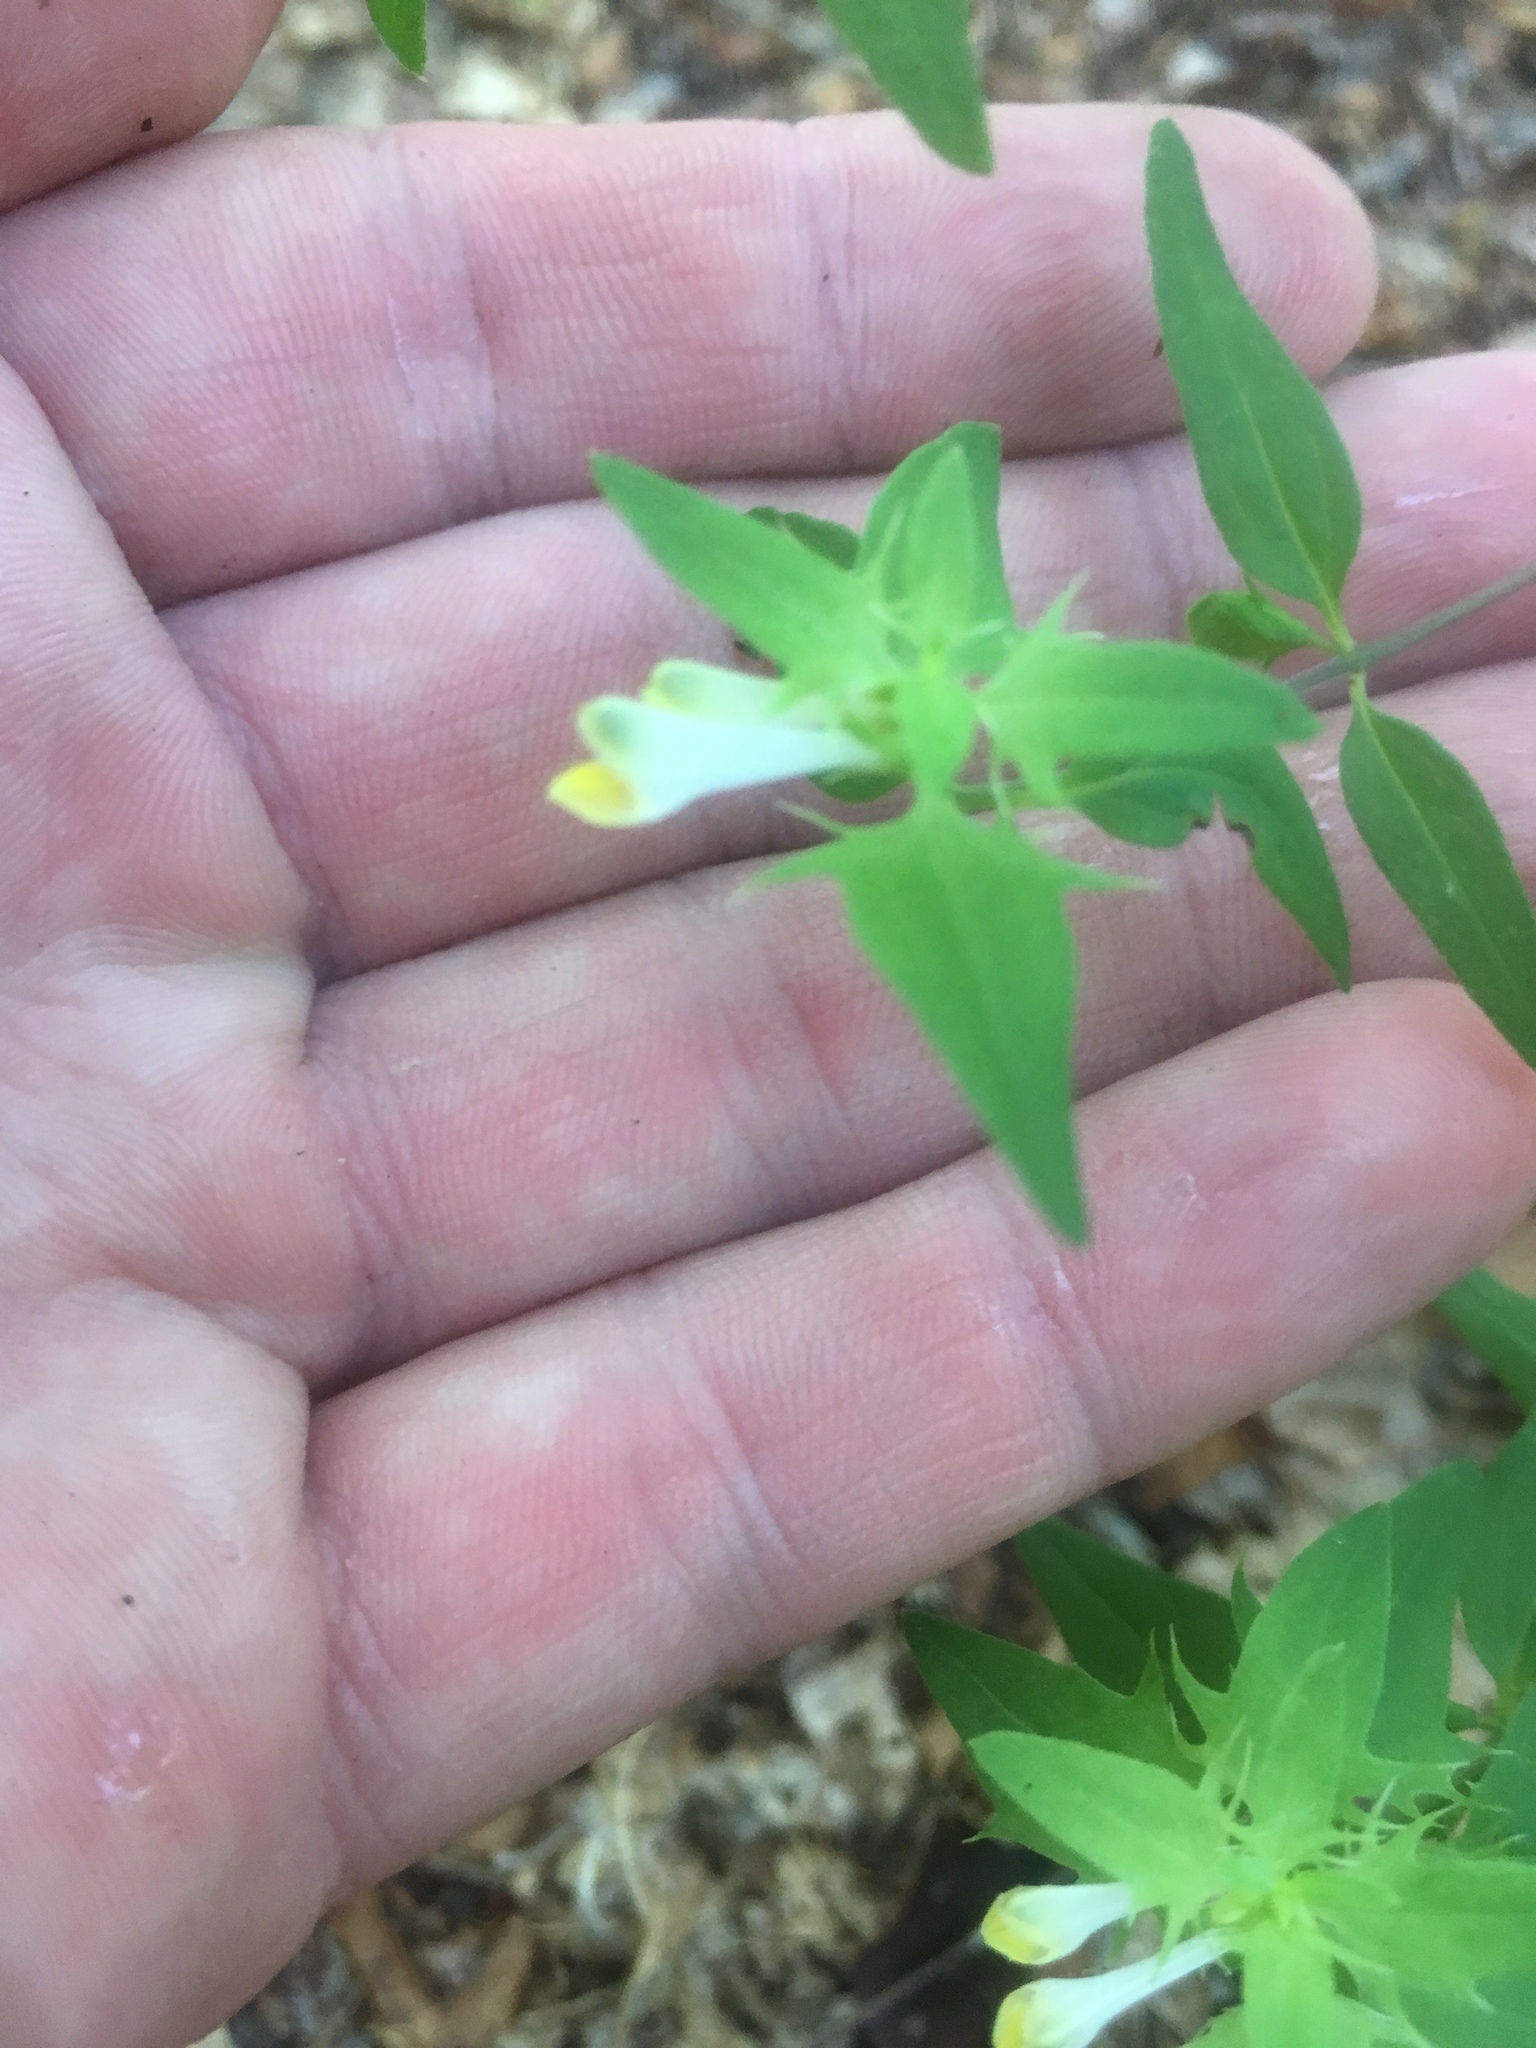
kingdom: Plantae
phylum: Tracheophyta
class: Magnoliopsida
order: Lamiales
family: Orobanchaceae
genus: Melampyrum
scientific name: Melampyrum lineare
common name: American cow-wheat
